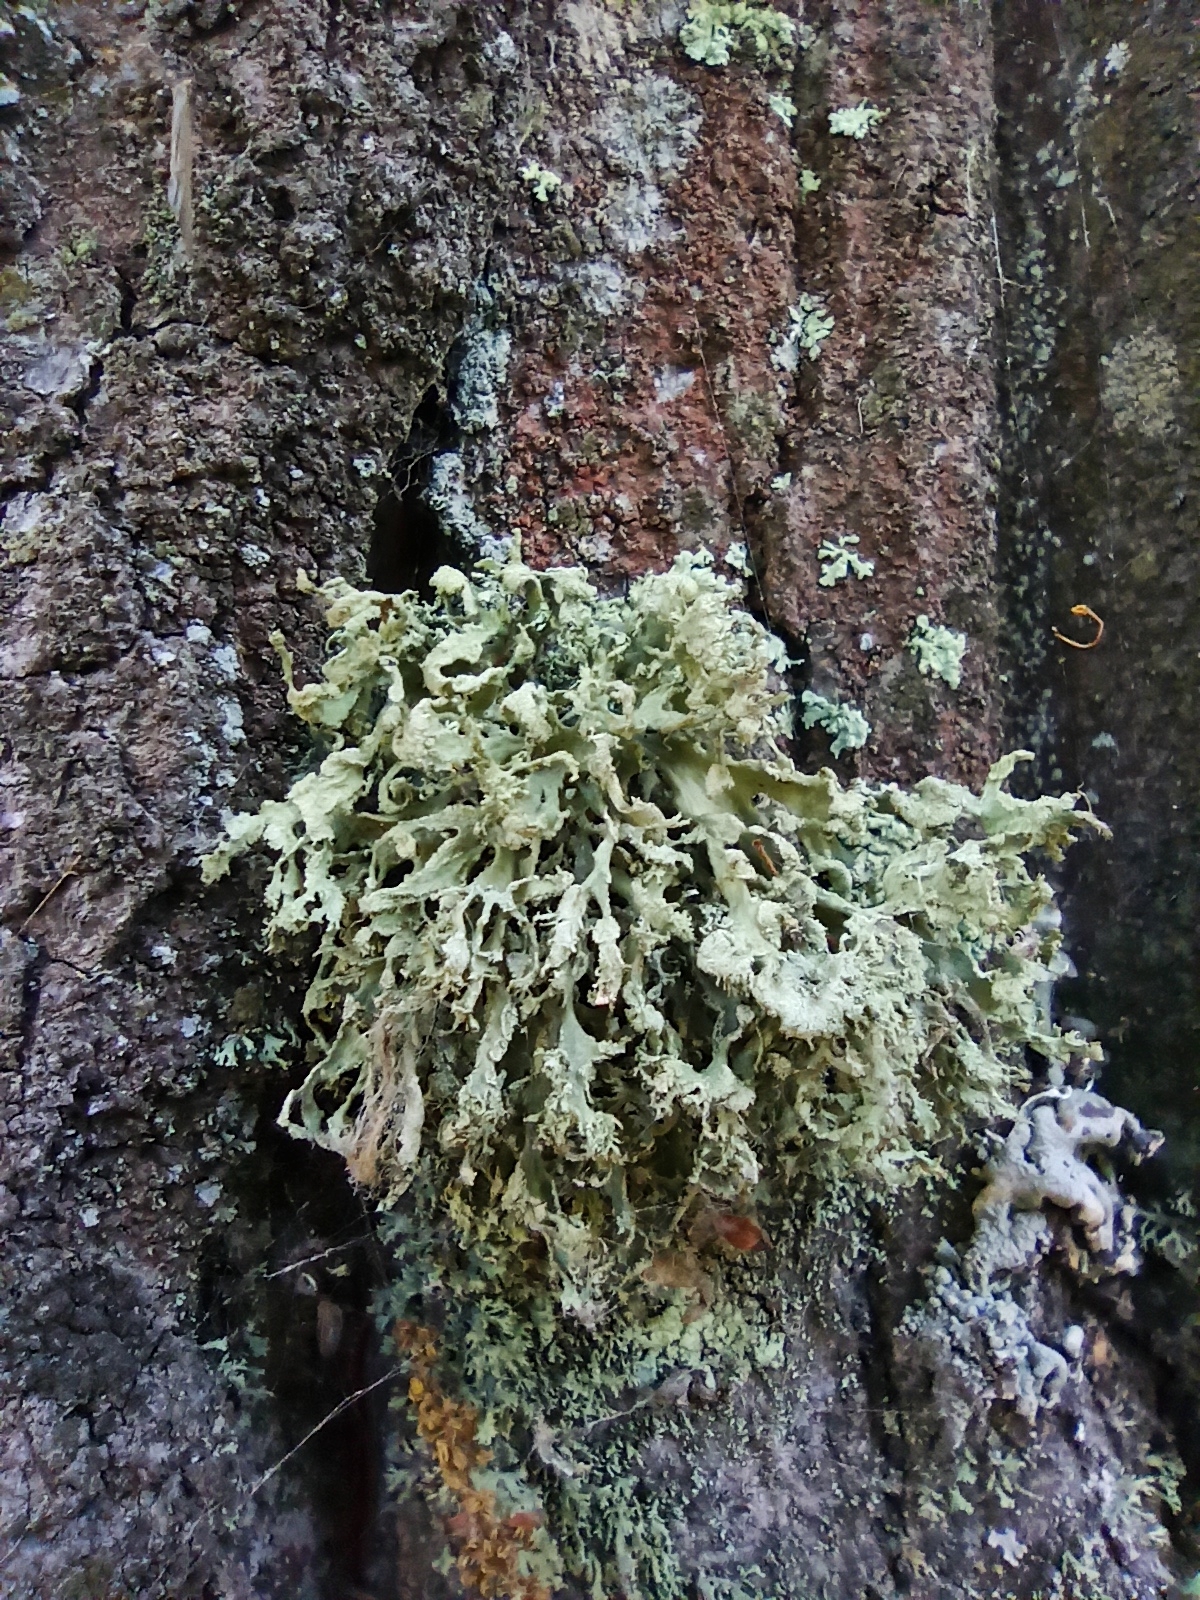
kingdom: Fungi
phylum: Ascomycota
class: Lecanoromycetes
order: Lecanorales
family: Parmeliaceae
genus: Evernia
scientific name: Evernia prunastri
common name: Oak moss
